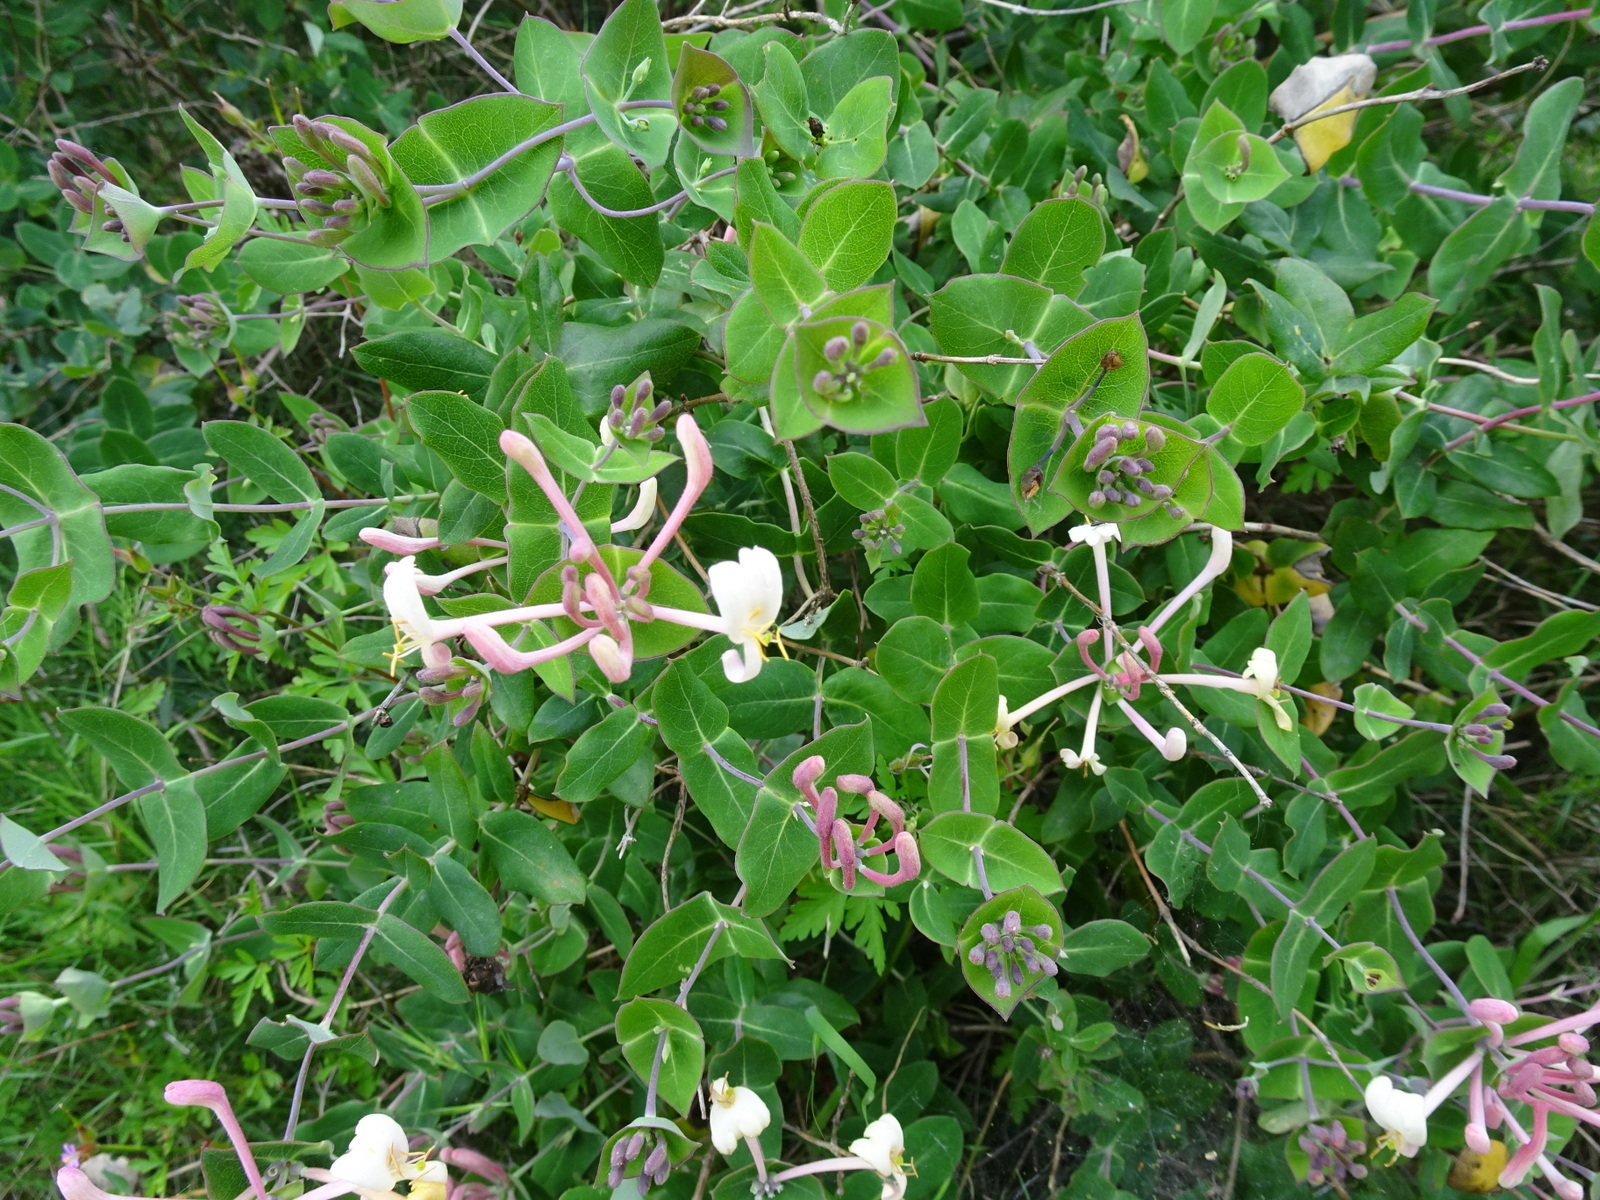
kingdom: Plantae
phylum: Tracheophyta
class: Magnoliopsida
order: Dipsacales
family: Caprifoliaceae
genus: Lonicera
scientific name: Lonicera implexa
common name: Minorca honeysuckle
